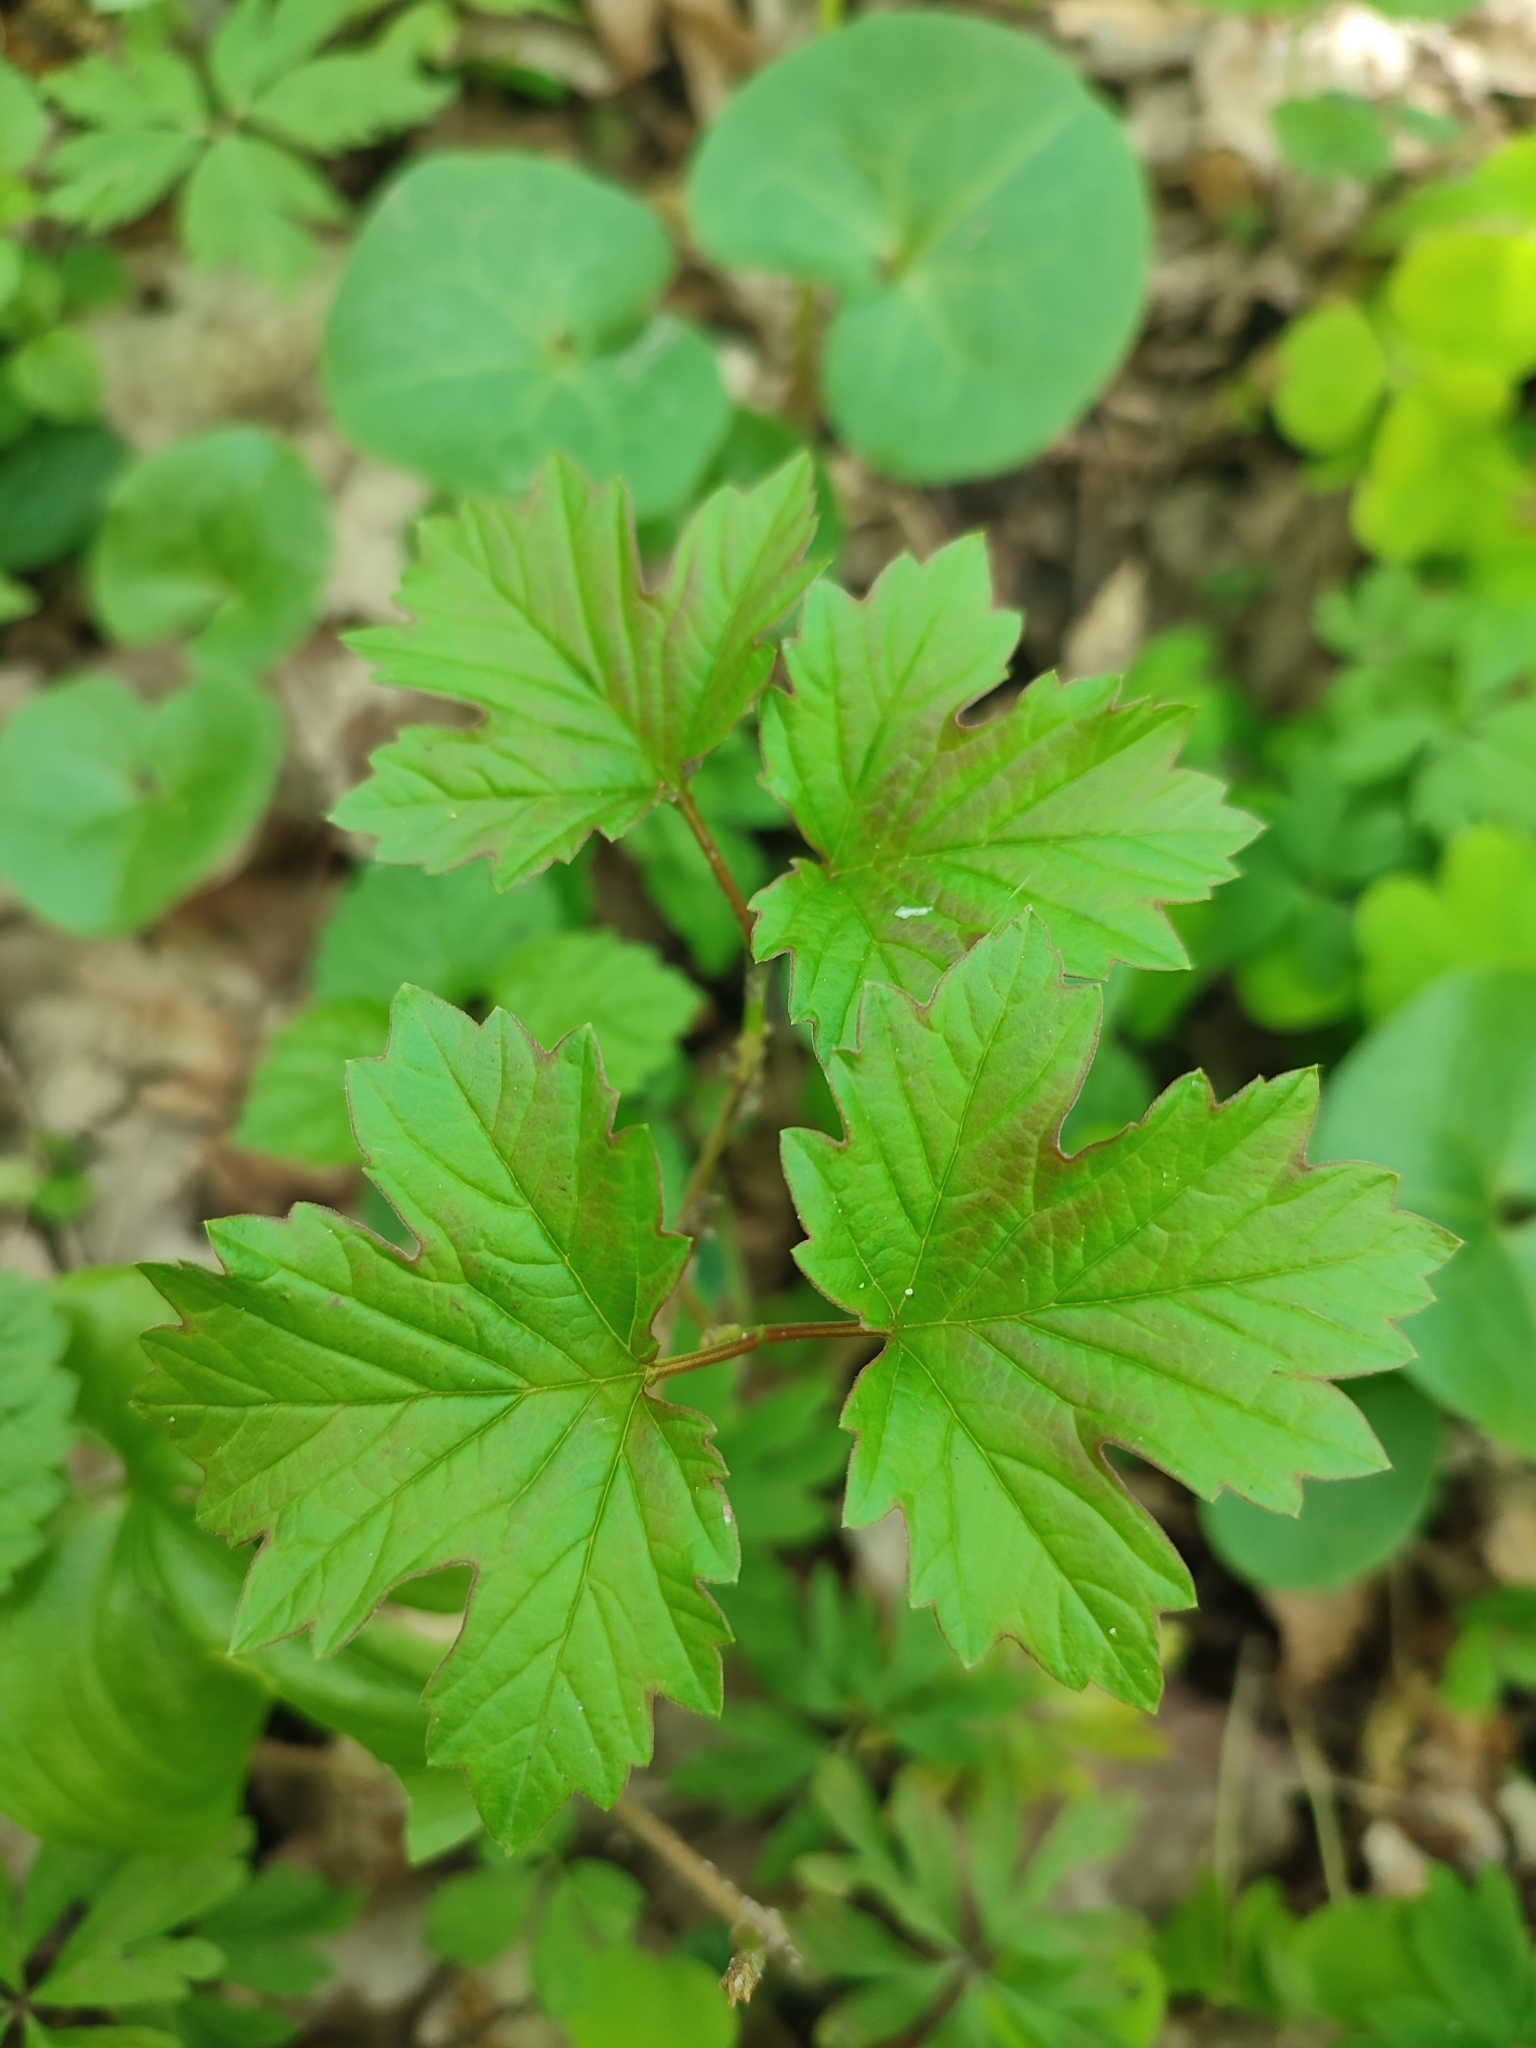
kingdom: Plantae
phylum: Tracheophyta
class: Magnoliopsida
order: Dipsacales
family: Viburnaceae
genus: Viburnum
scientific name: Viburnum opulus
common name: Guelder-rose
